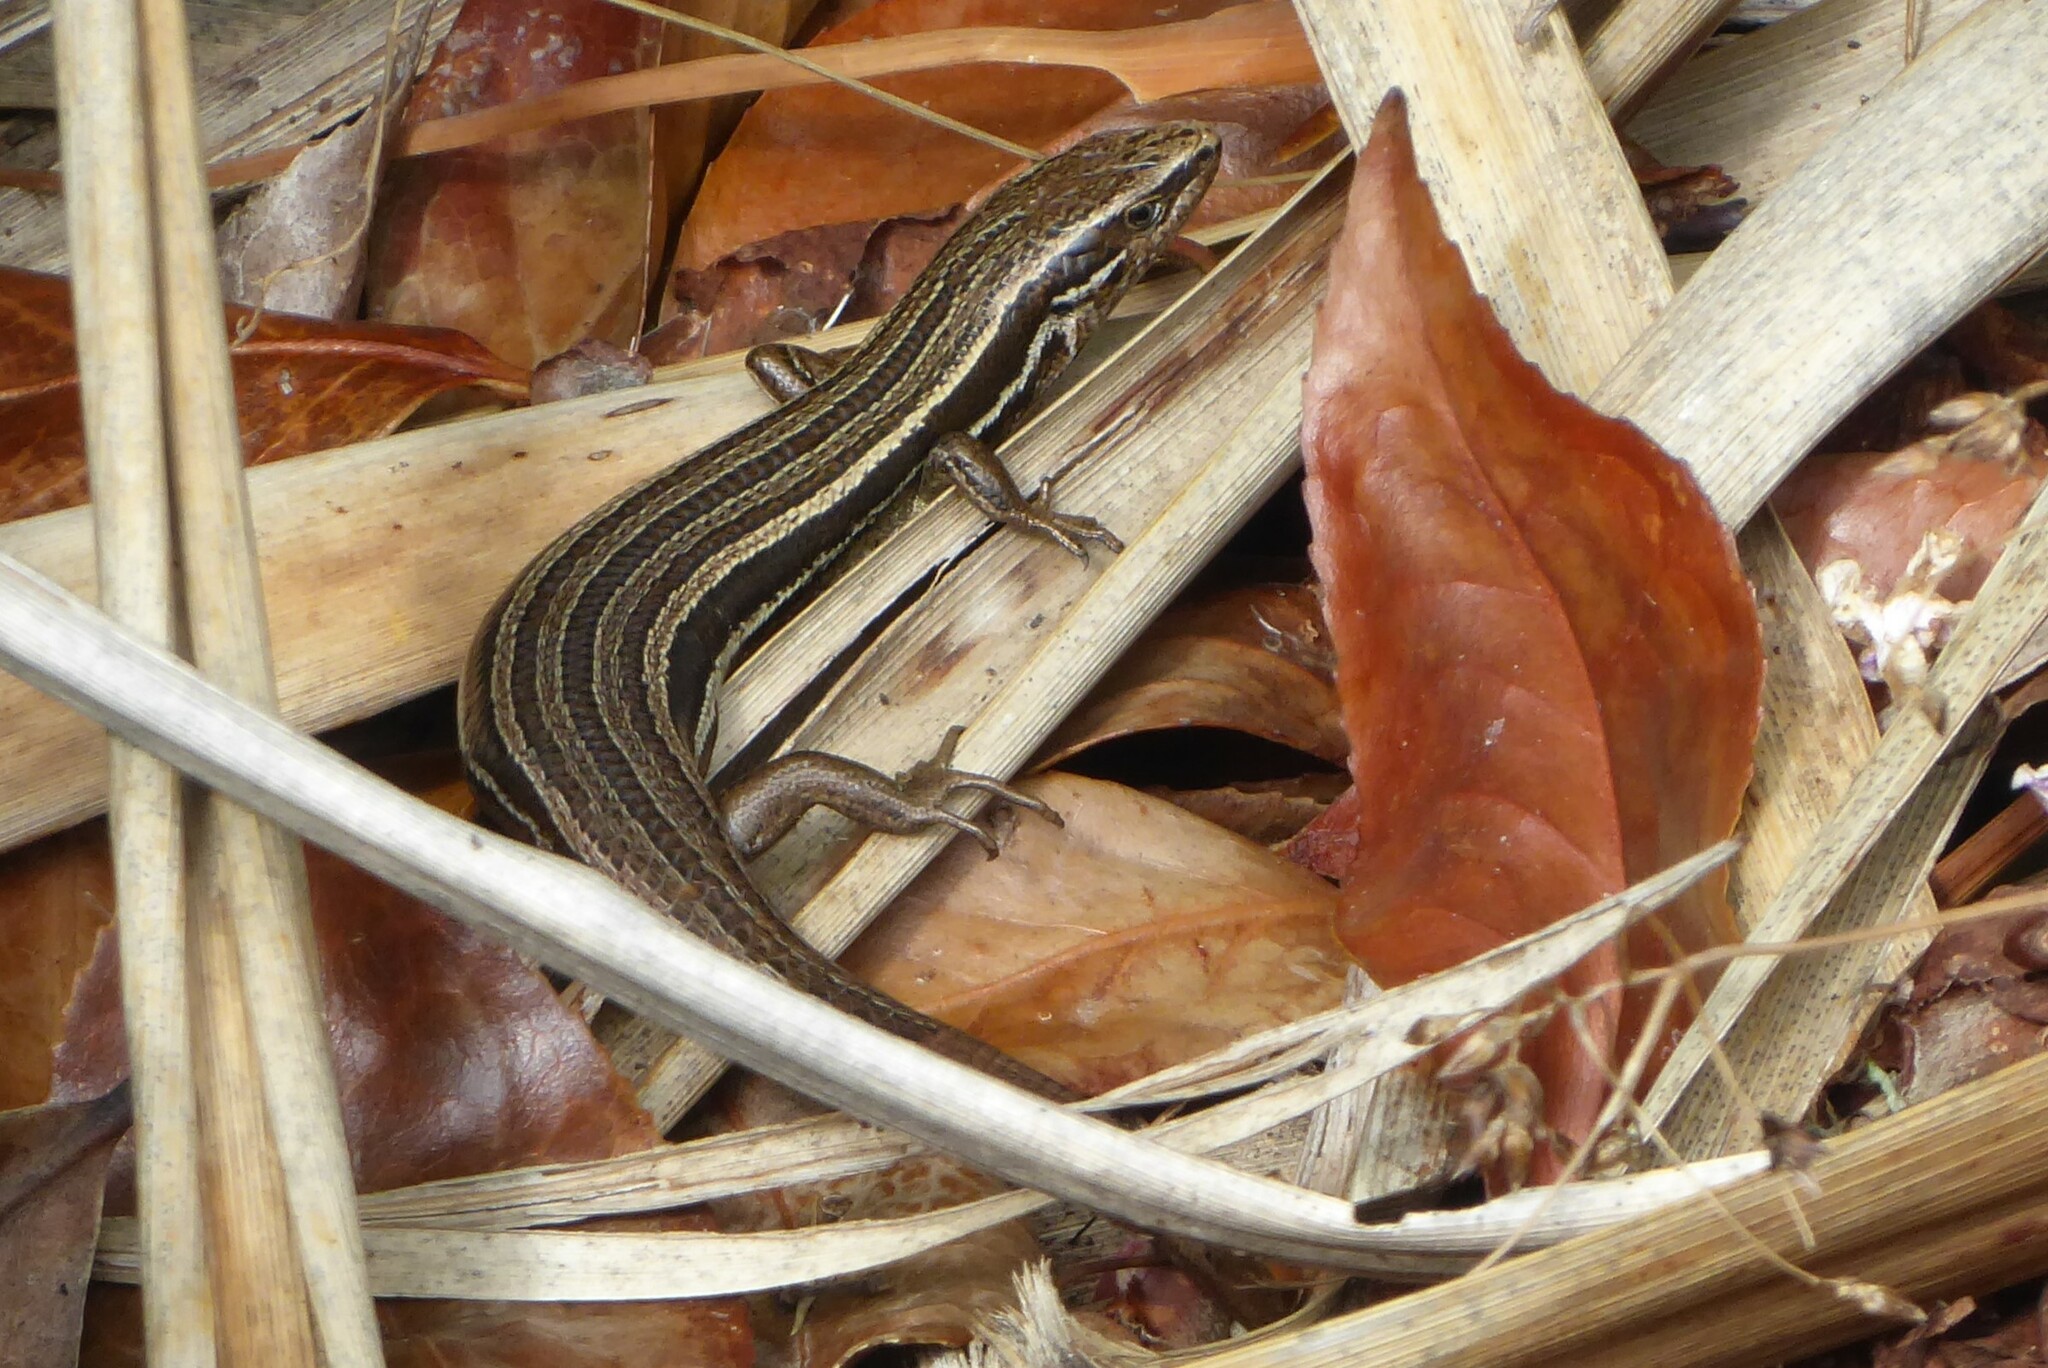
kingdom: Animalia
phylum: Chordata
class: Squamata
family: Scincidae
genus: Oligosoma
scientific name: Oligosoma polychroma
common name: Common new zealand skink
